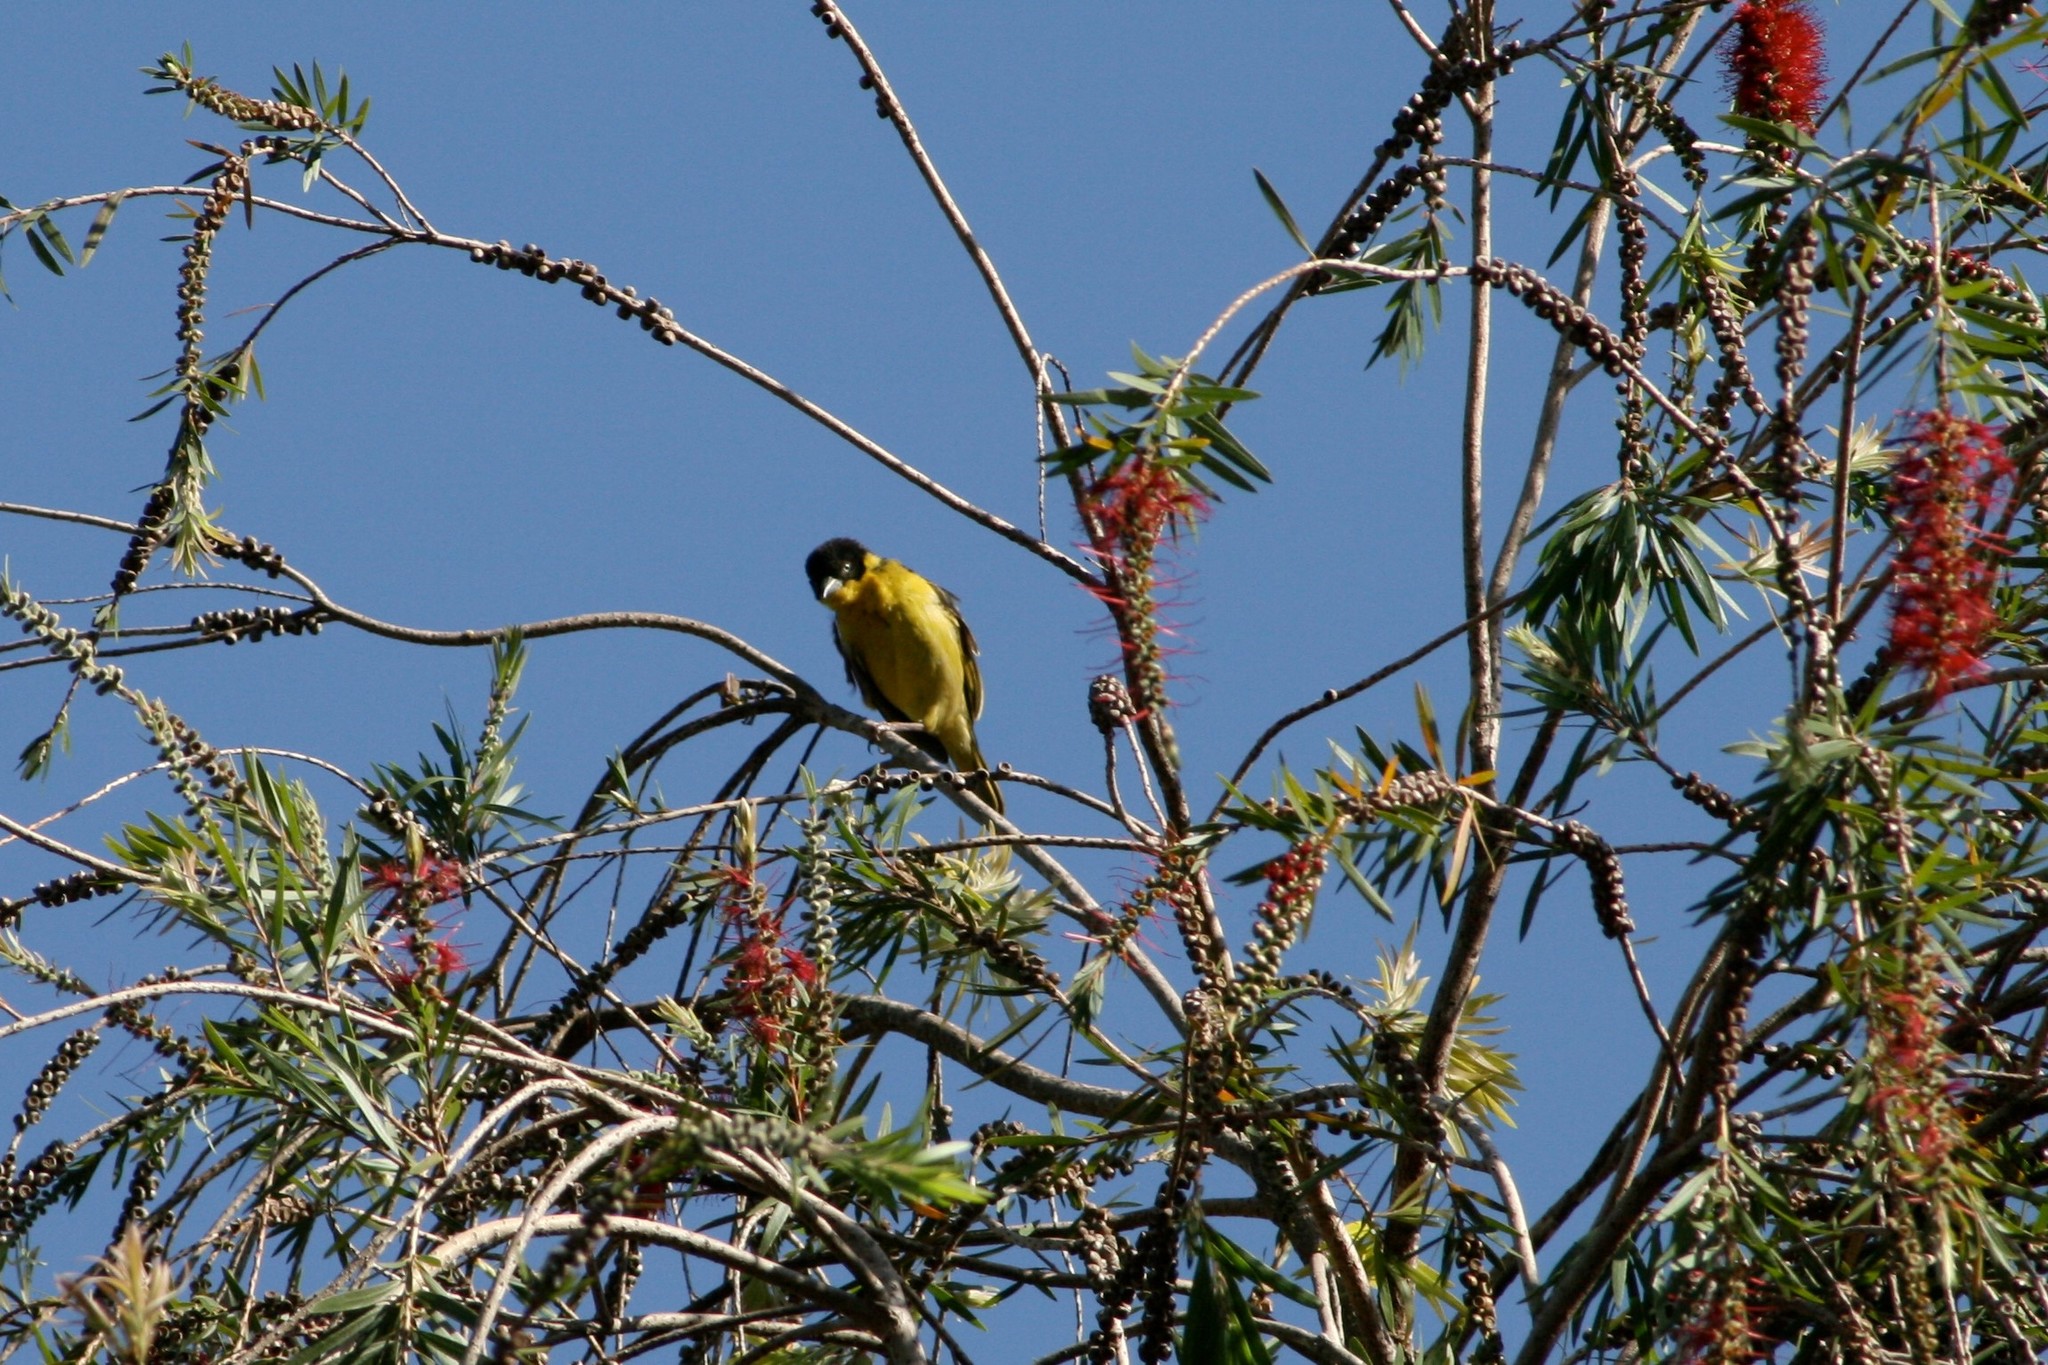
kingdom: Animalia
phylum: Chordata
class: Aves
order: Passeriformes
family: Ploceidae
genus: Ploceus
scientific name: Ploceus baglafecht
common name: Baglafecht weaver
